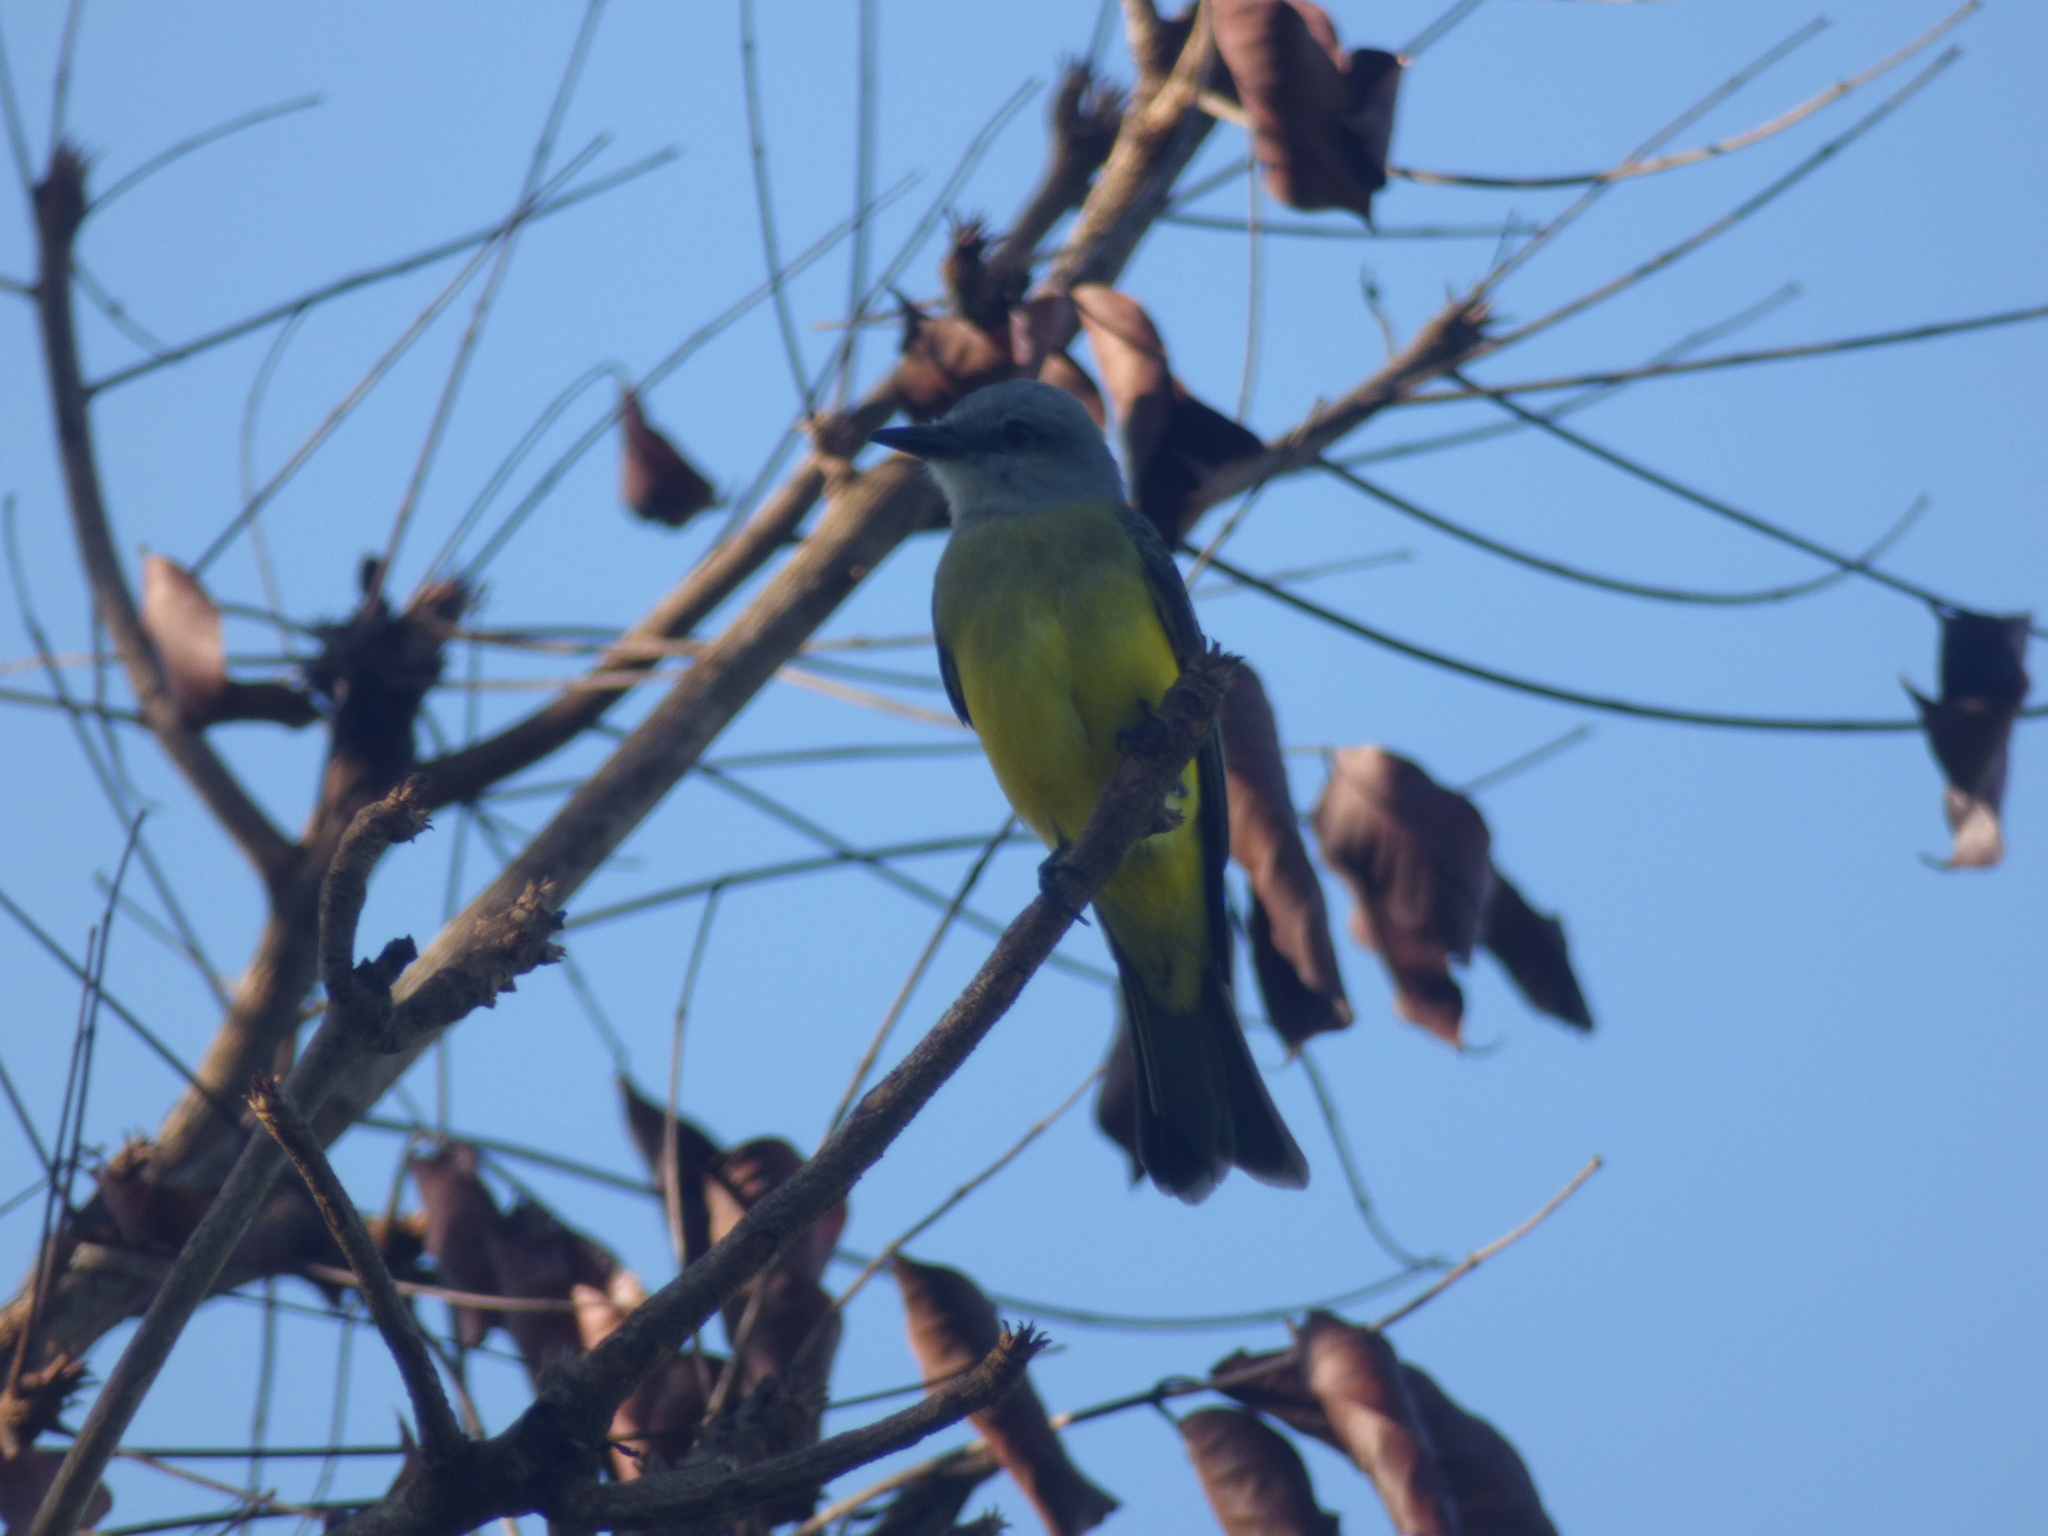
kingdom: Animalia
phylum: Chordata
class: Aves
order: Passeriformes
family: Tyrannidae
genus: Tyrannus
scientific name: Tyrannus melancholicus
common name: Tropical kingbird
